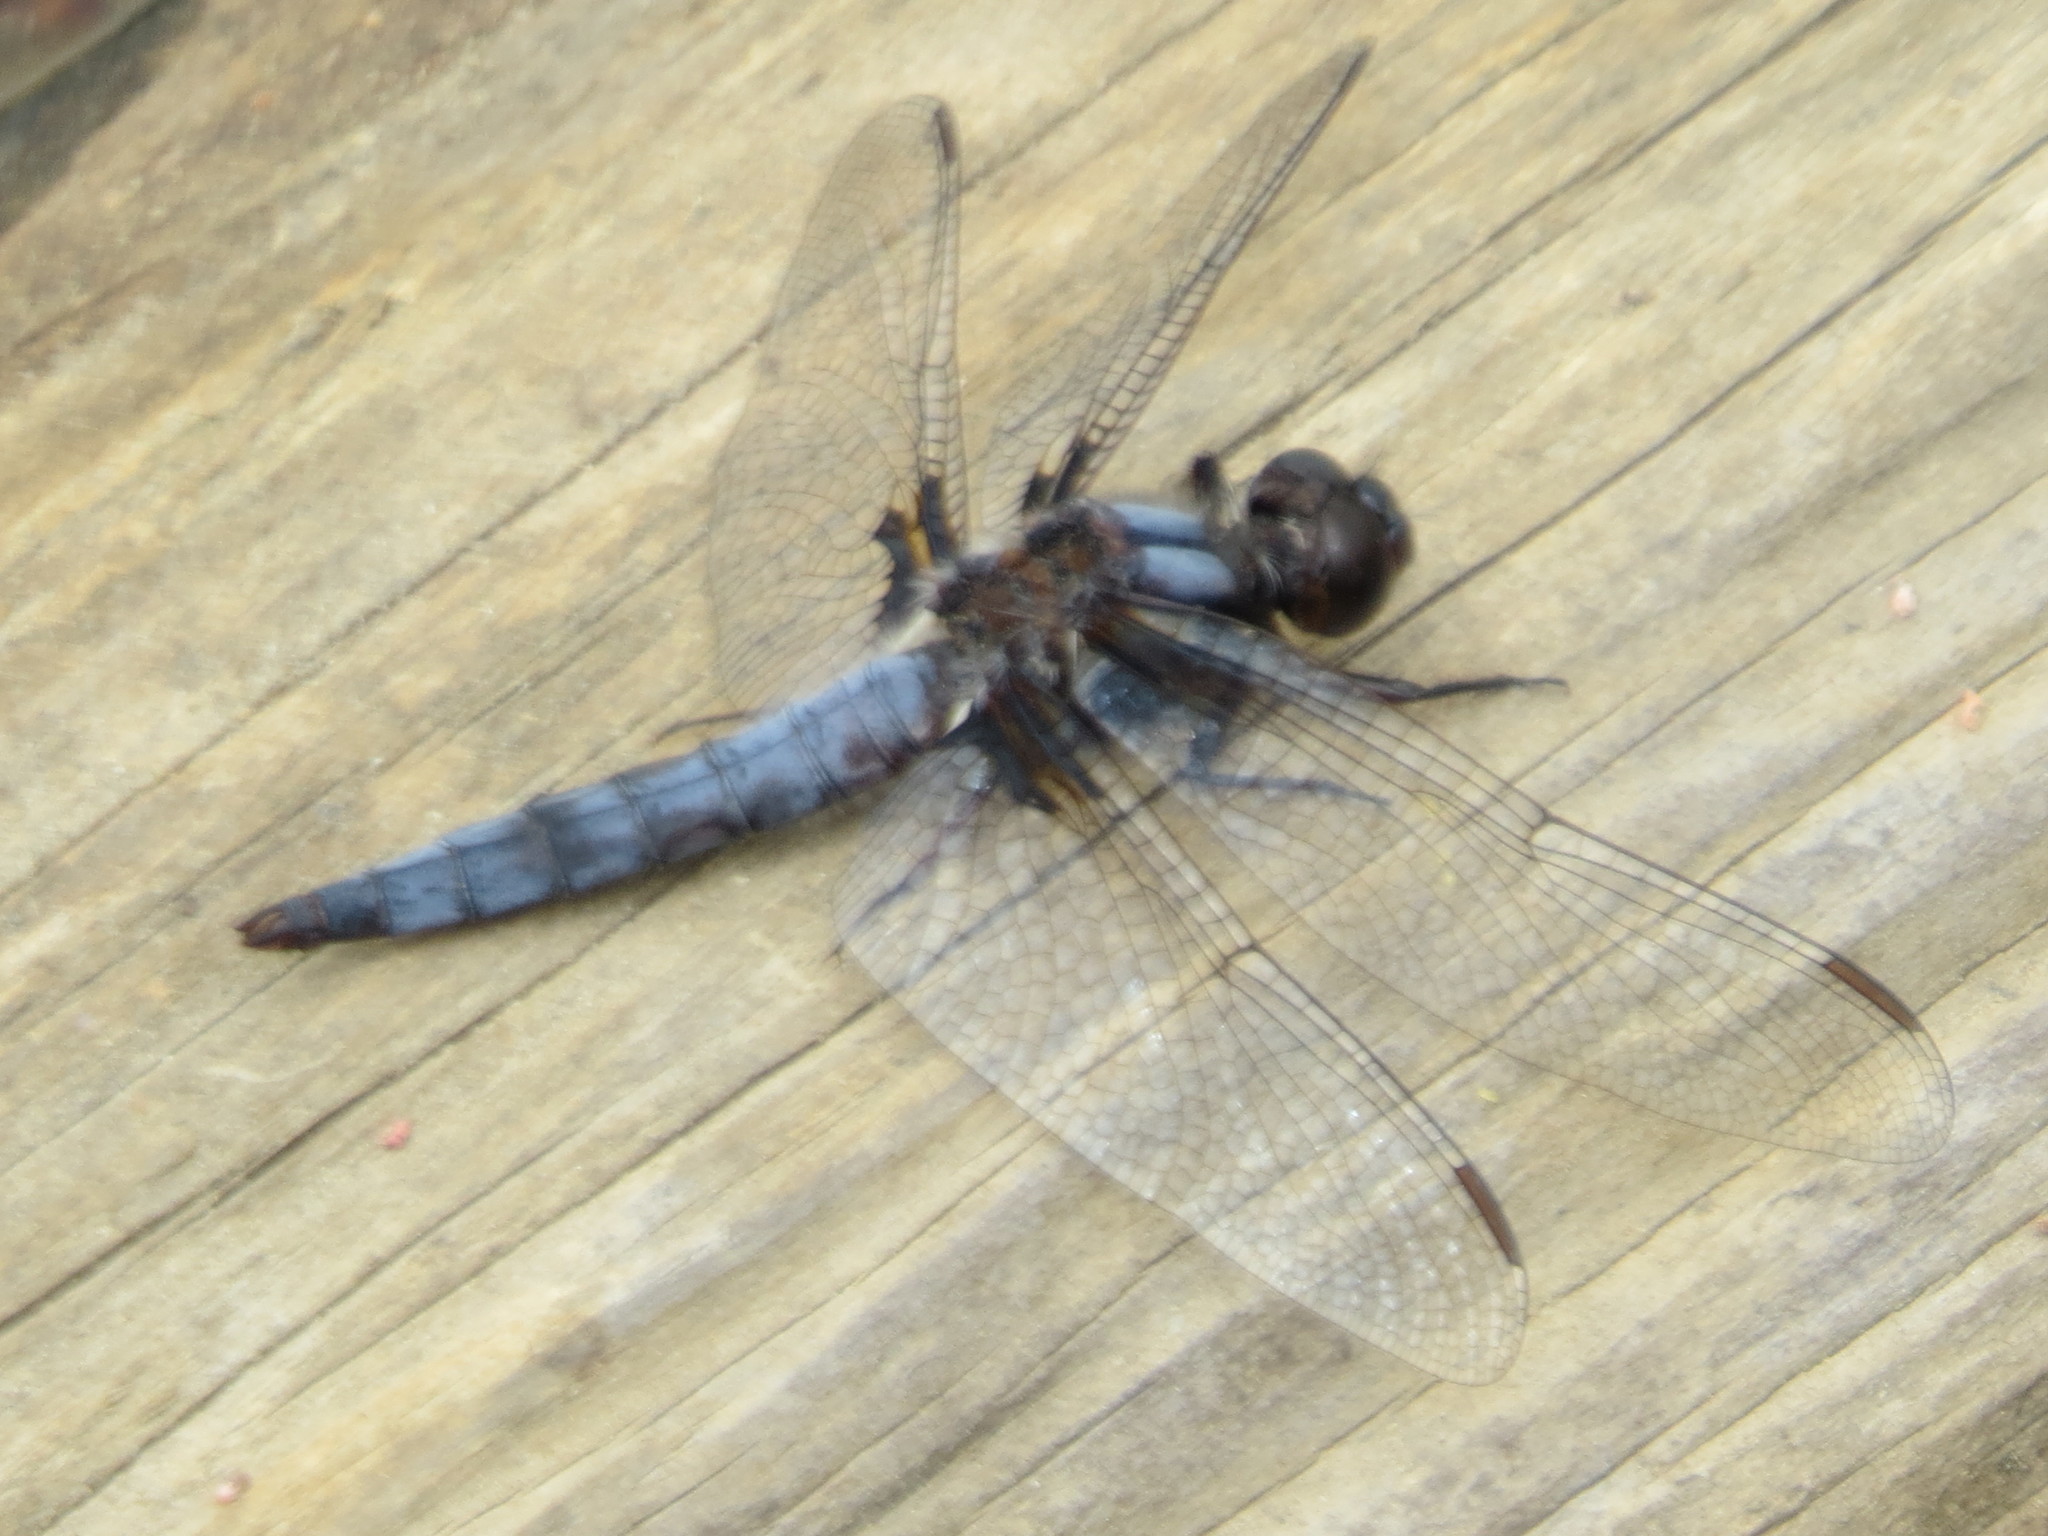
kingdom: Animalia
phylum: Arthropoda
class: Insecta
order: Odonata
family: Libellulidae
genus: Ladona
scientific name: Ladona deplanata
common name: Blue corporal
